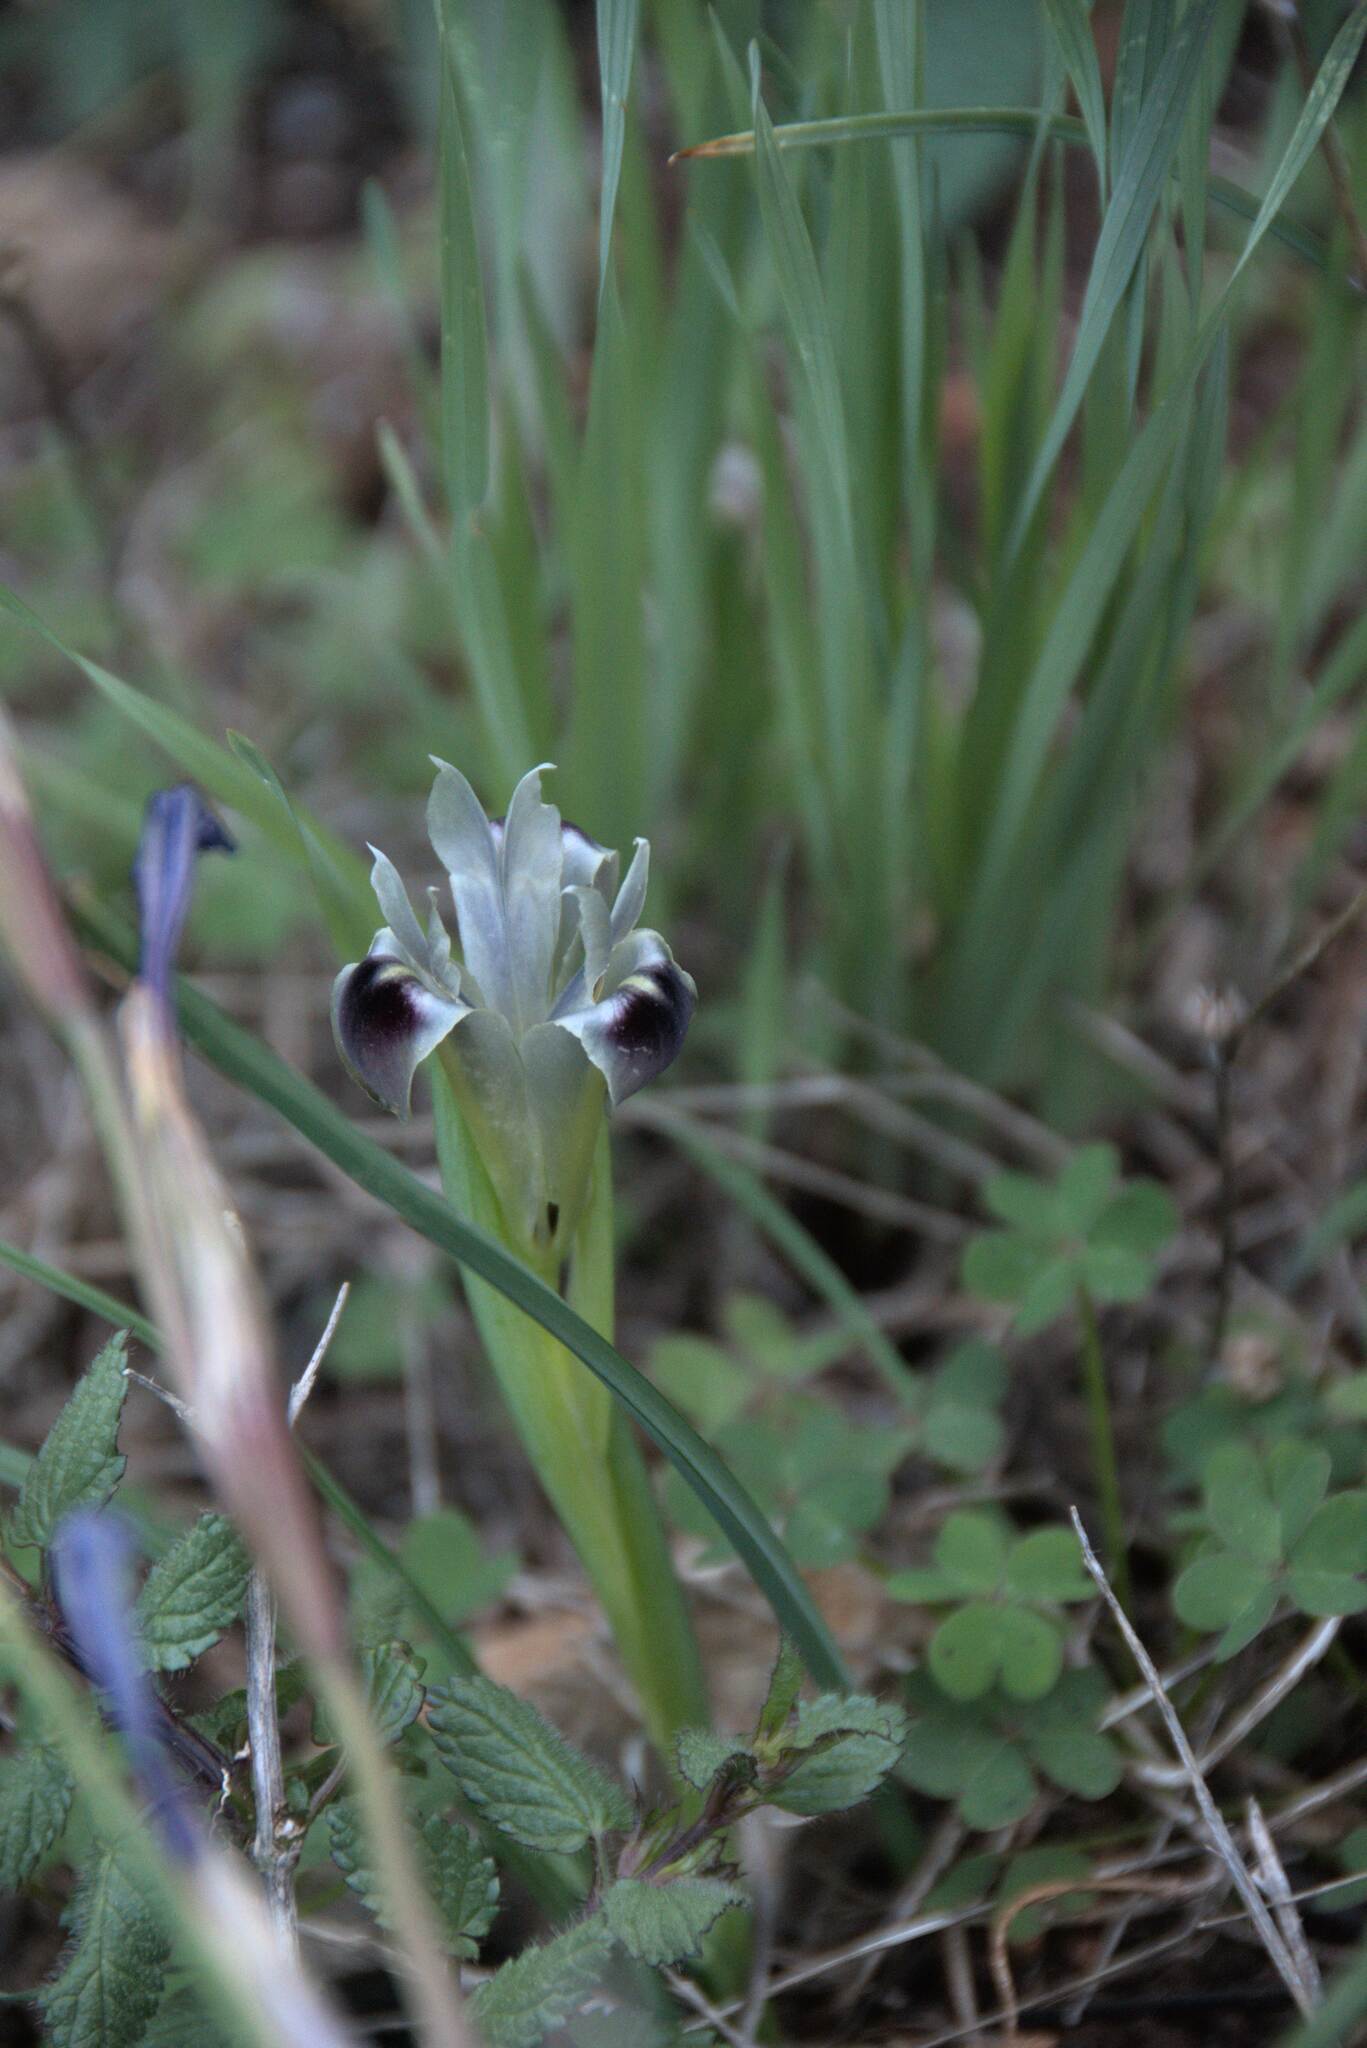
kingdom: Plantae
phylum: Tracheophyta
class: Liliopsida
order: Asparagales
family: Iridaceae
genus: Iris
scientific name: Iris tuberosa
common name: Snake's-head iris
